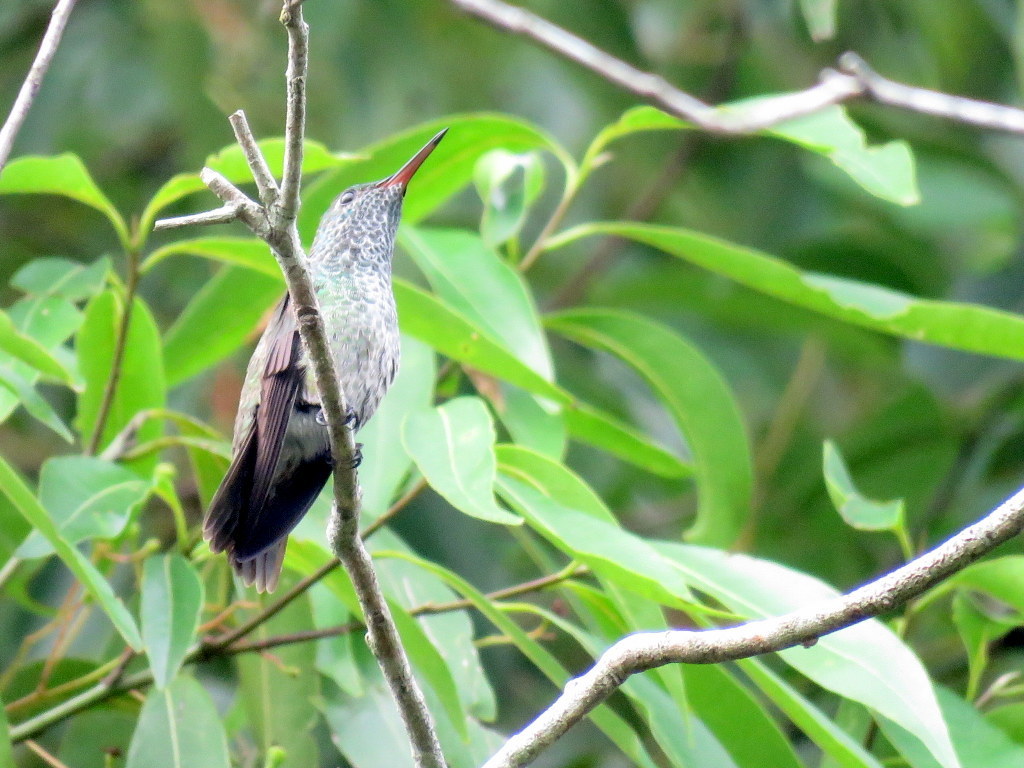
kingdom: Animalia
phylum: Chordata
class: Aves
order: Apodiformes
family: Trochilidae
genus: Chrysuronia
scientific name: Chrysuronia versicolor
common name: Versicolored emerald
